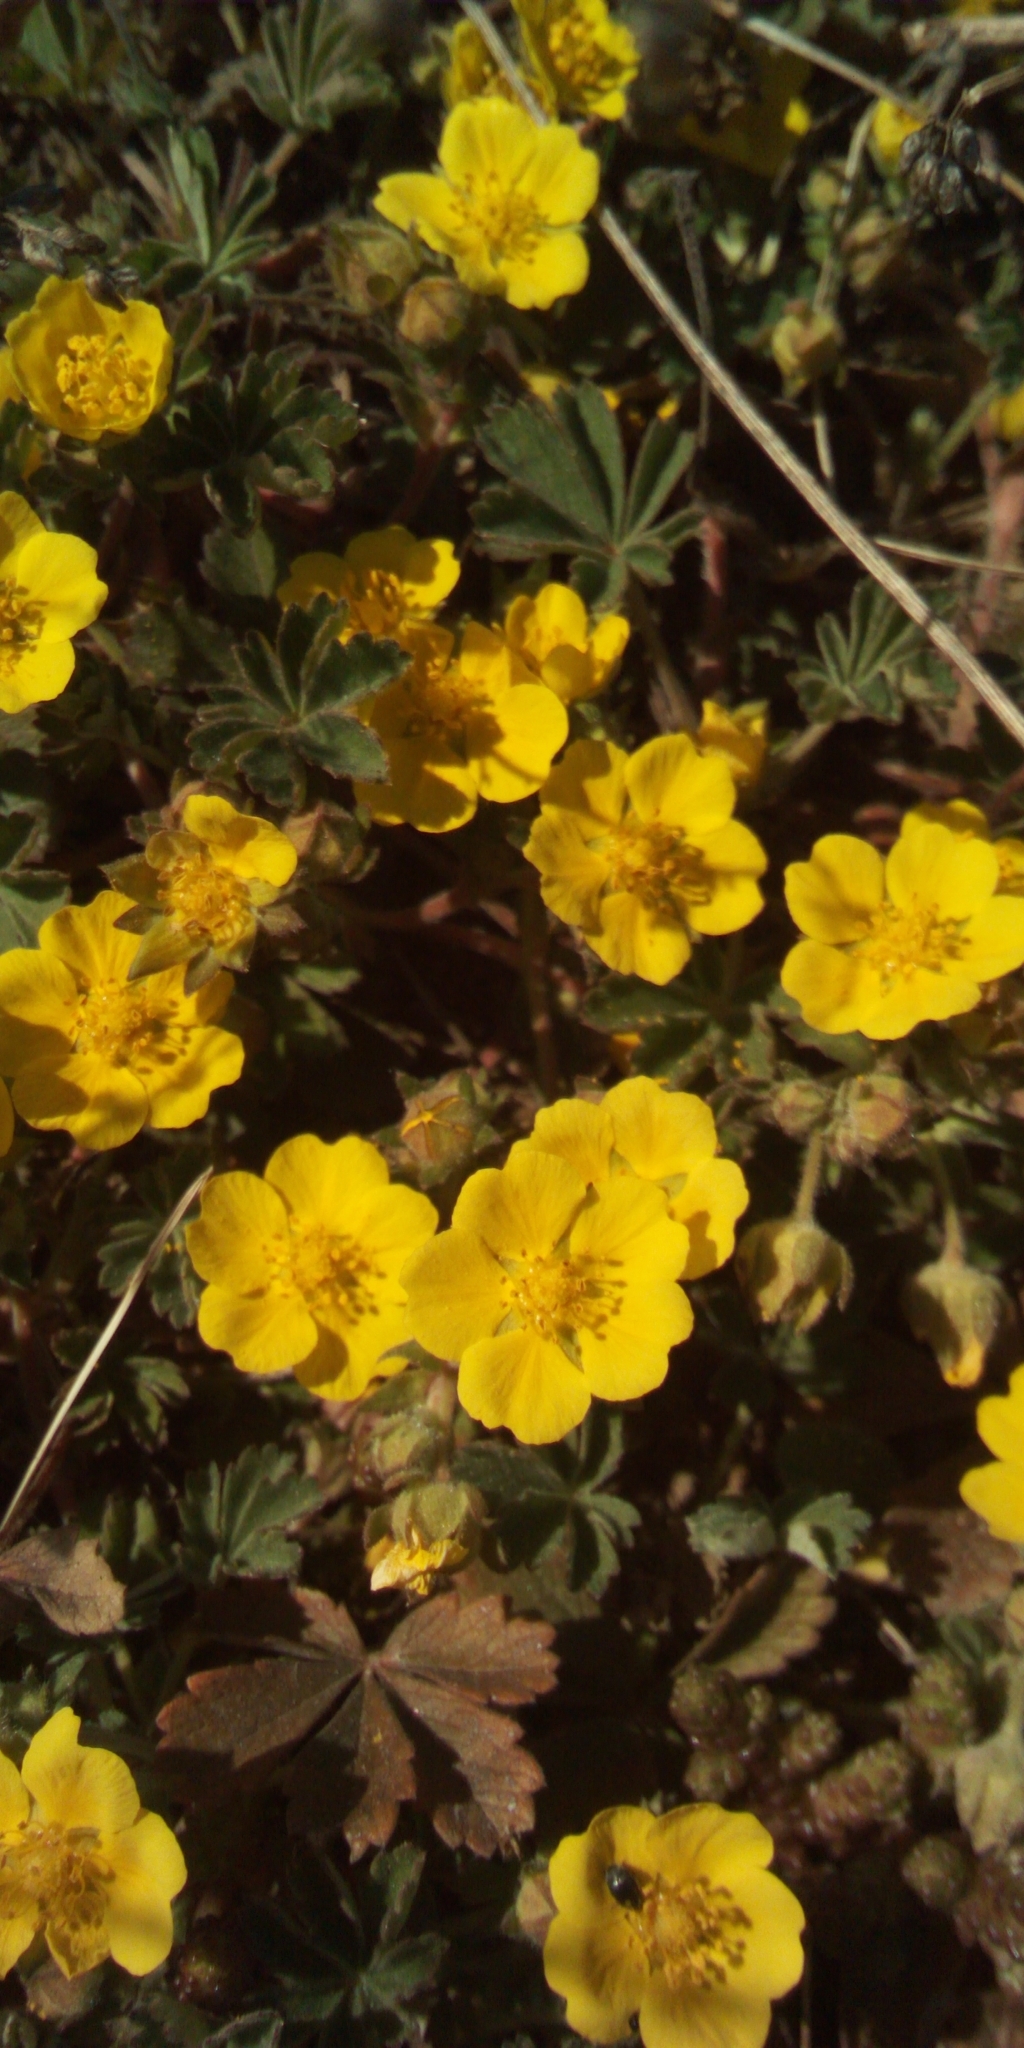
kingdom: Plantae
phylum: Tracheophyta
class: Magnoliopsida
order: Rosales
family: Rosaceae
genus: Potentilla
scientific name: Potentilla incana
